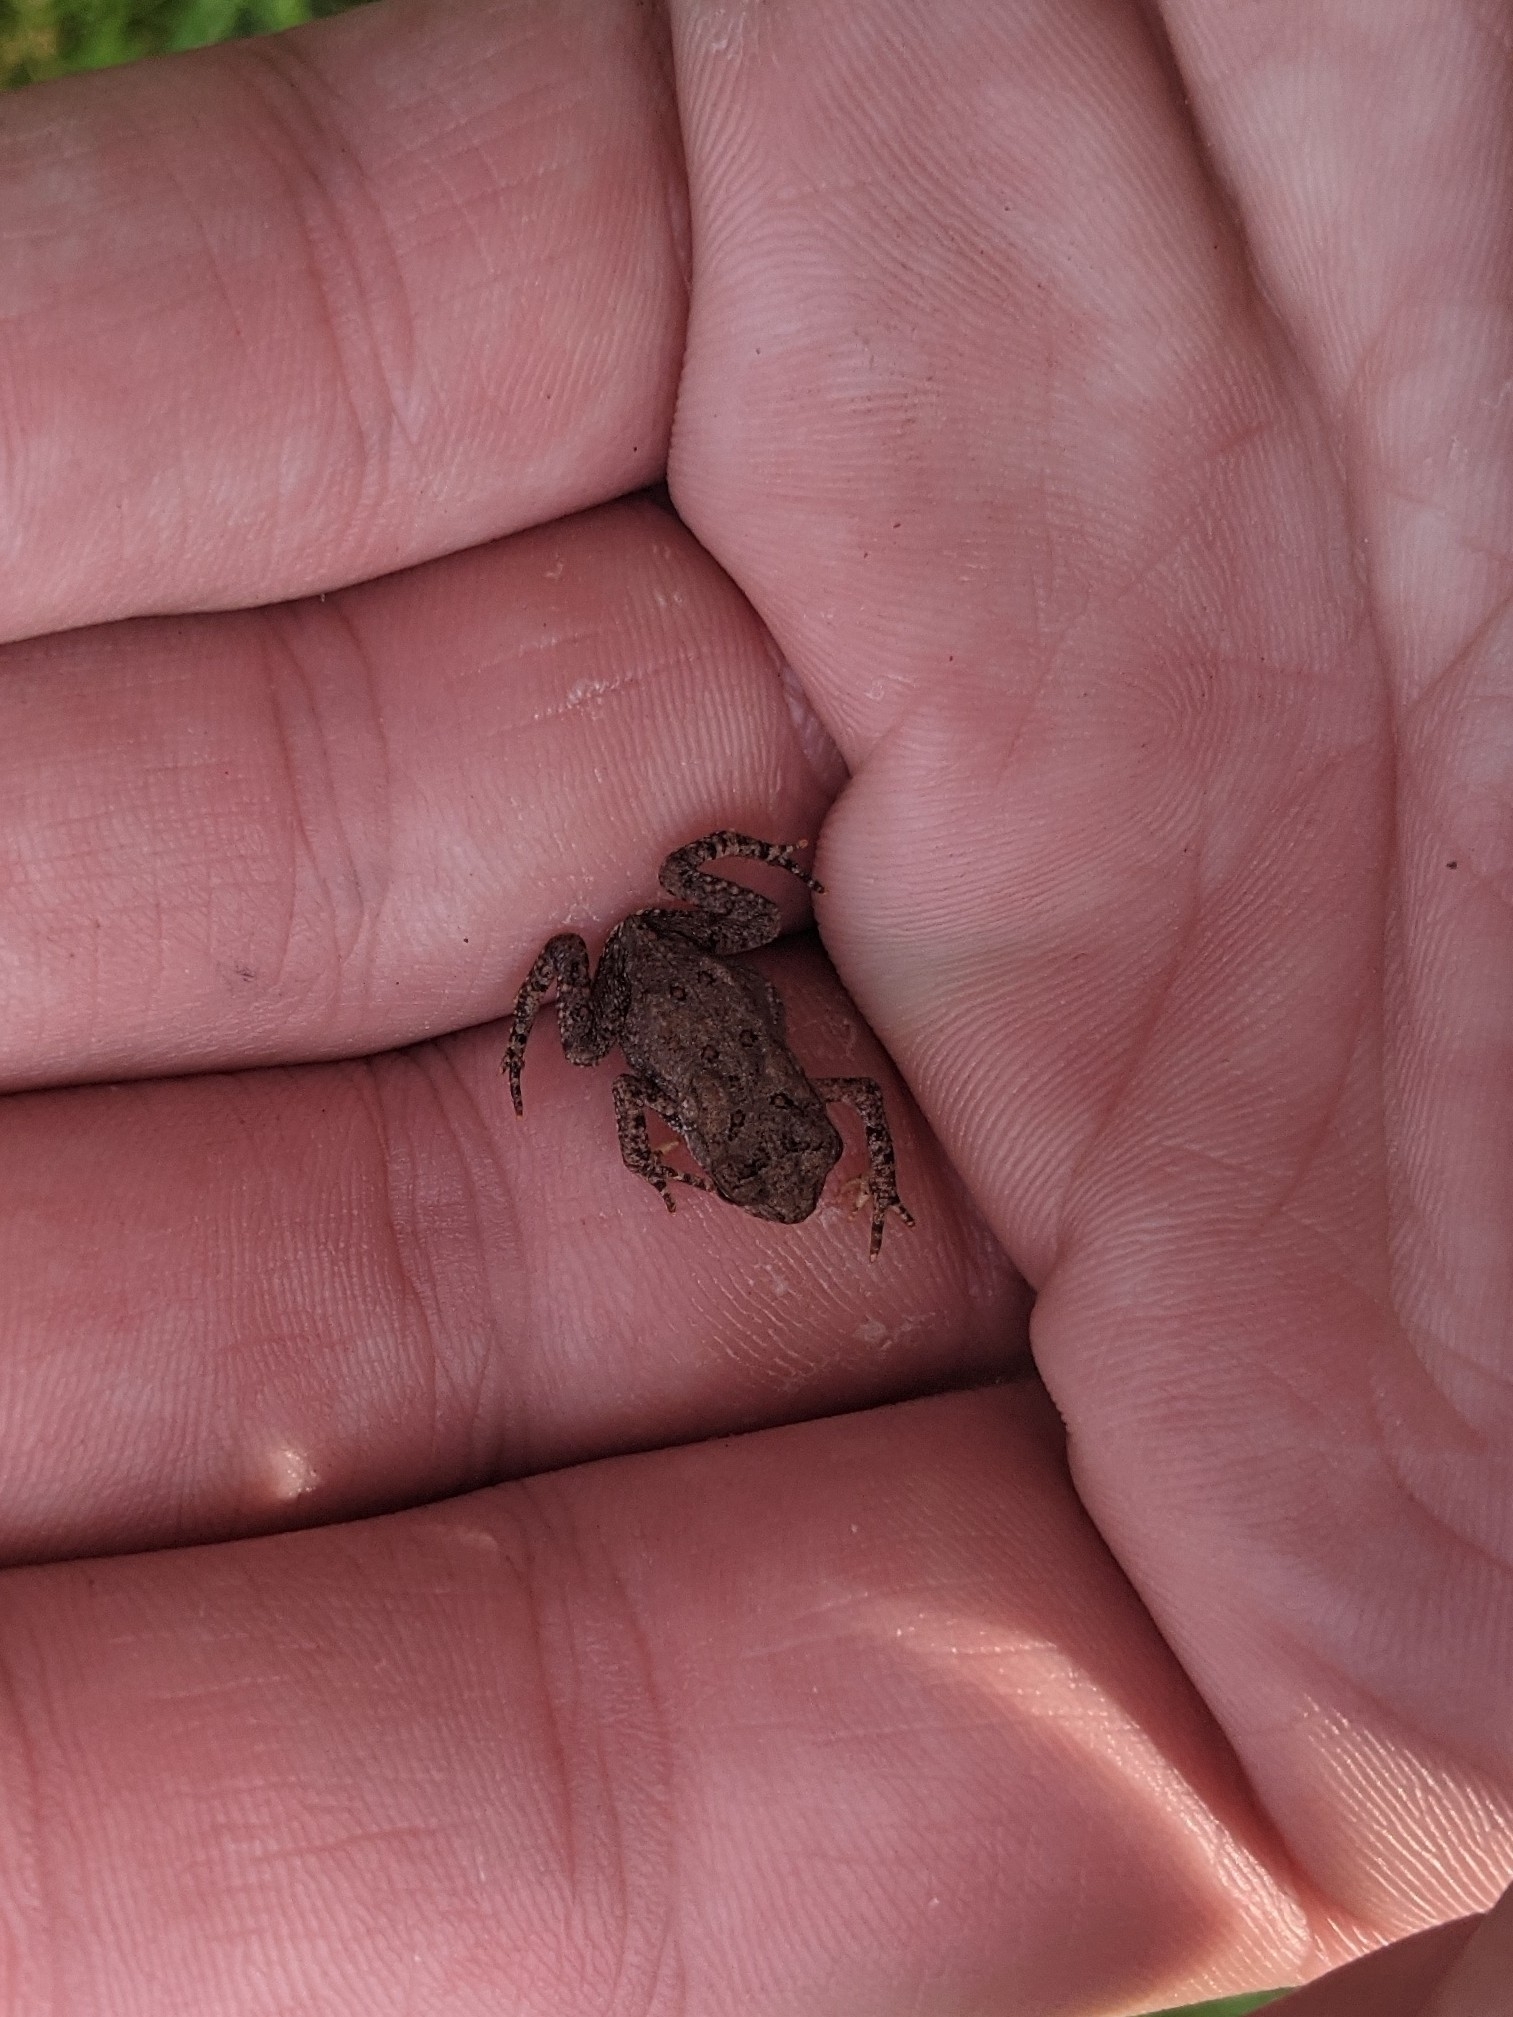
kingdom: Animalia
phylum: Chordata
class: Amphibia
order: Anura
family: Bufonidae
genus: Anaxyrus
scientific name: Anaxyrus americanus
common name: American toad
